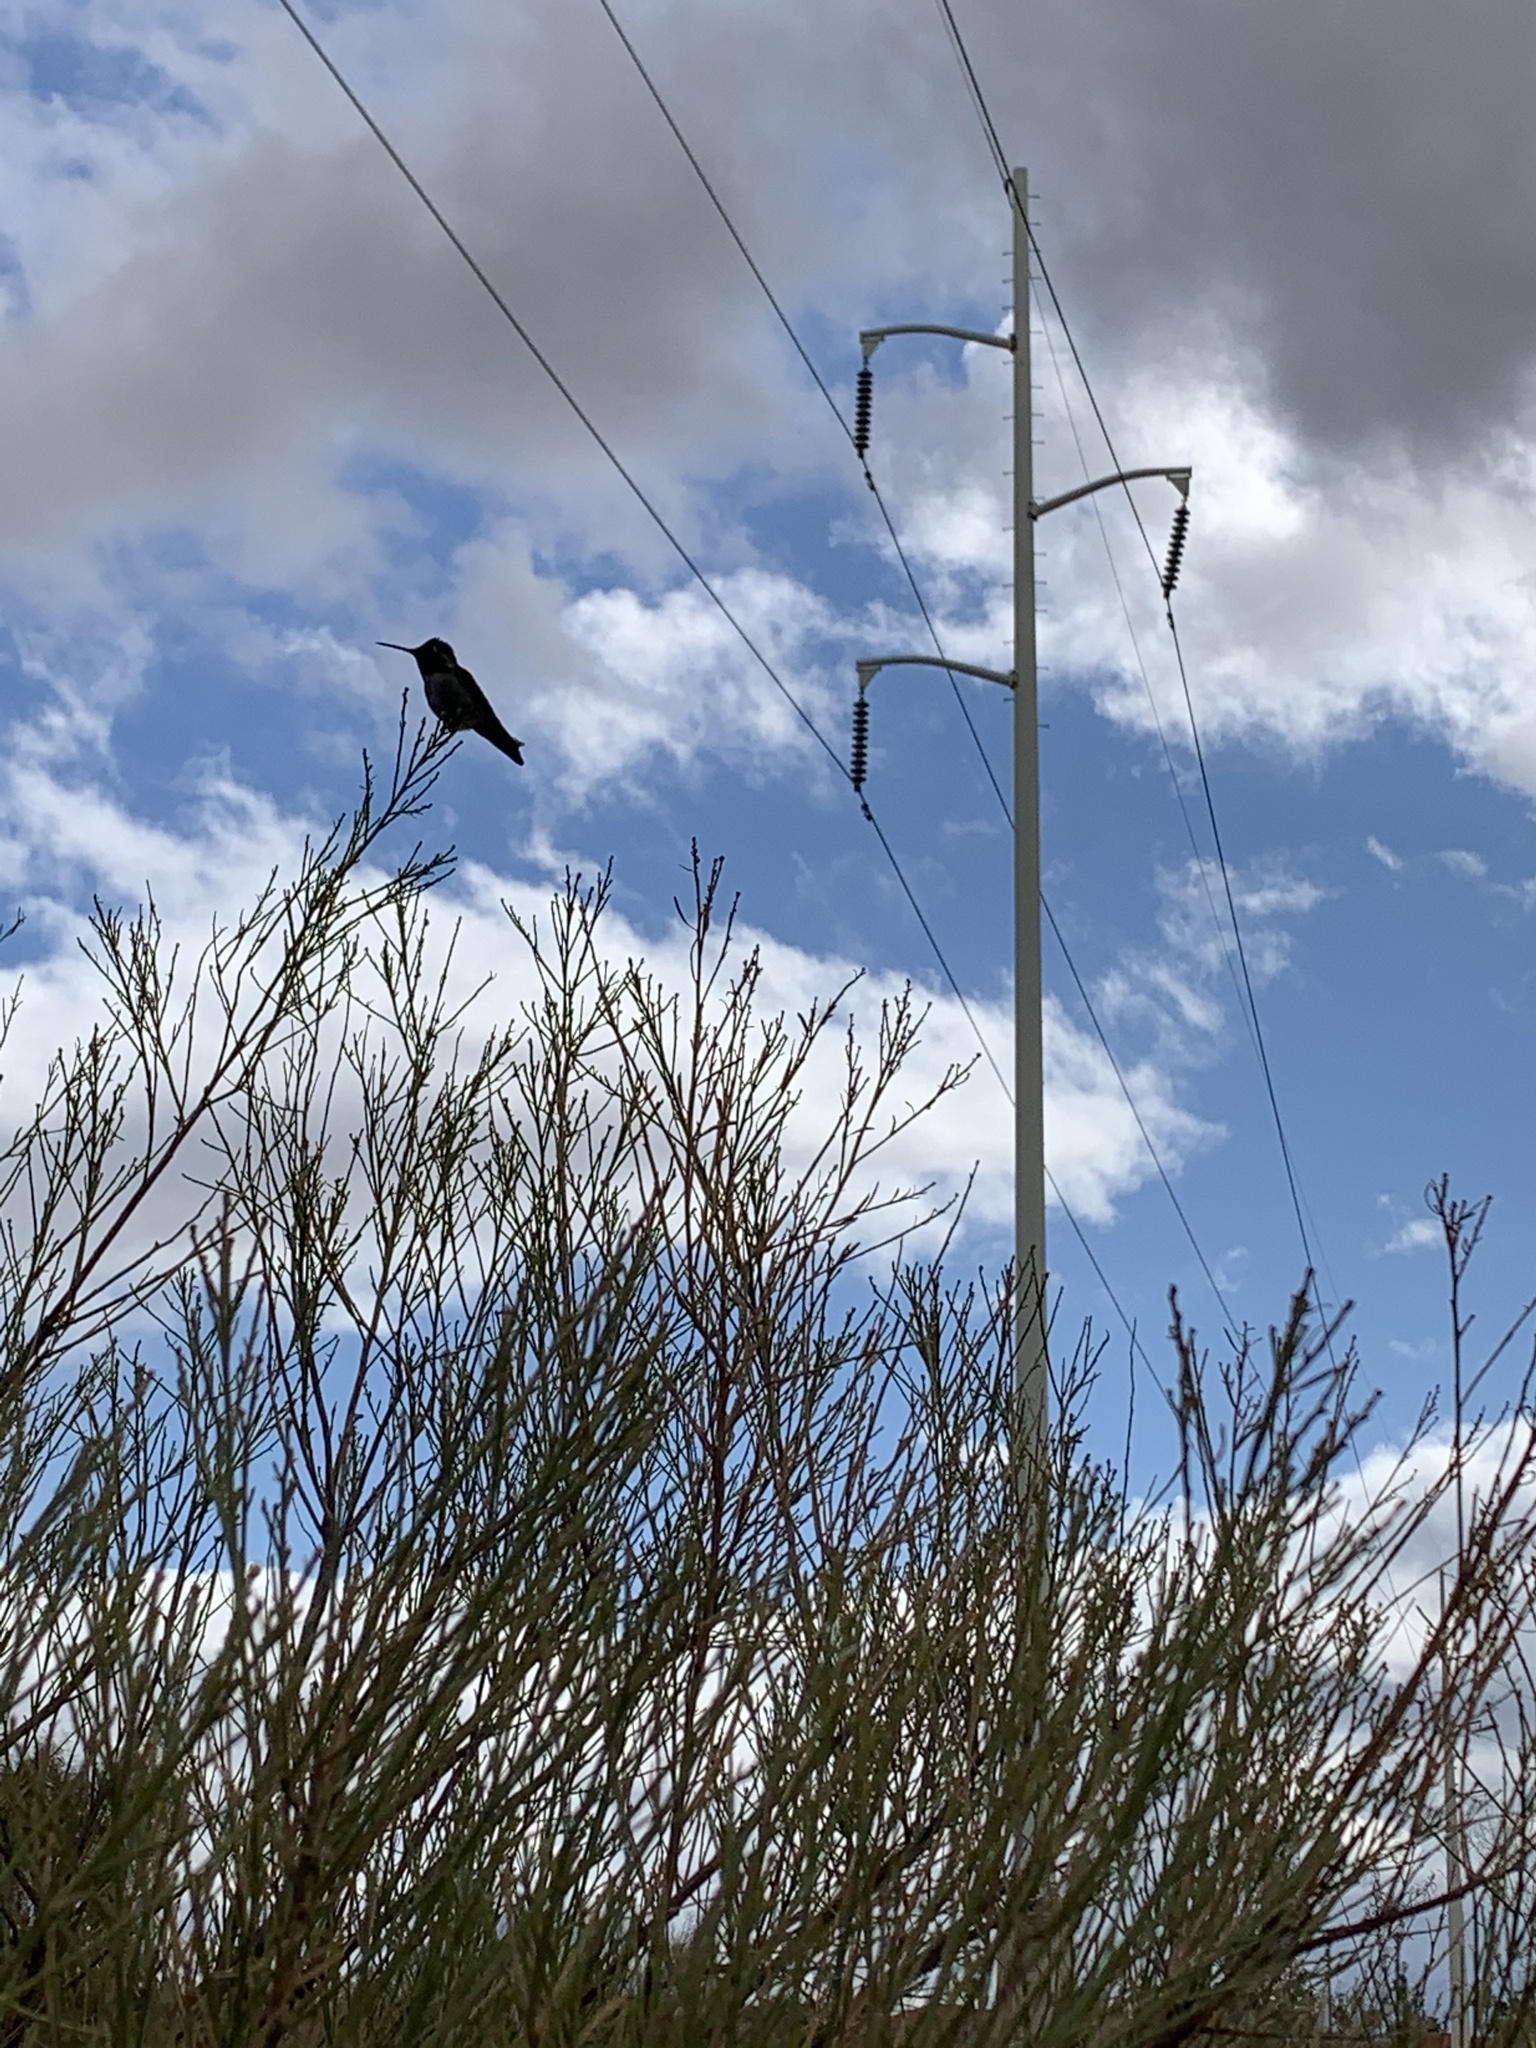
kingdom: Animalia
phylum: Chordata
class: Aves
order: Apodiformes
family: Trochilidae
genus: Calypte
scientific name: Calypte anna
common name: Anna's hummingbird
